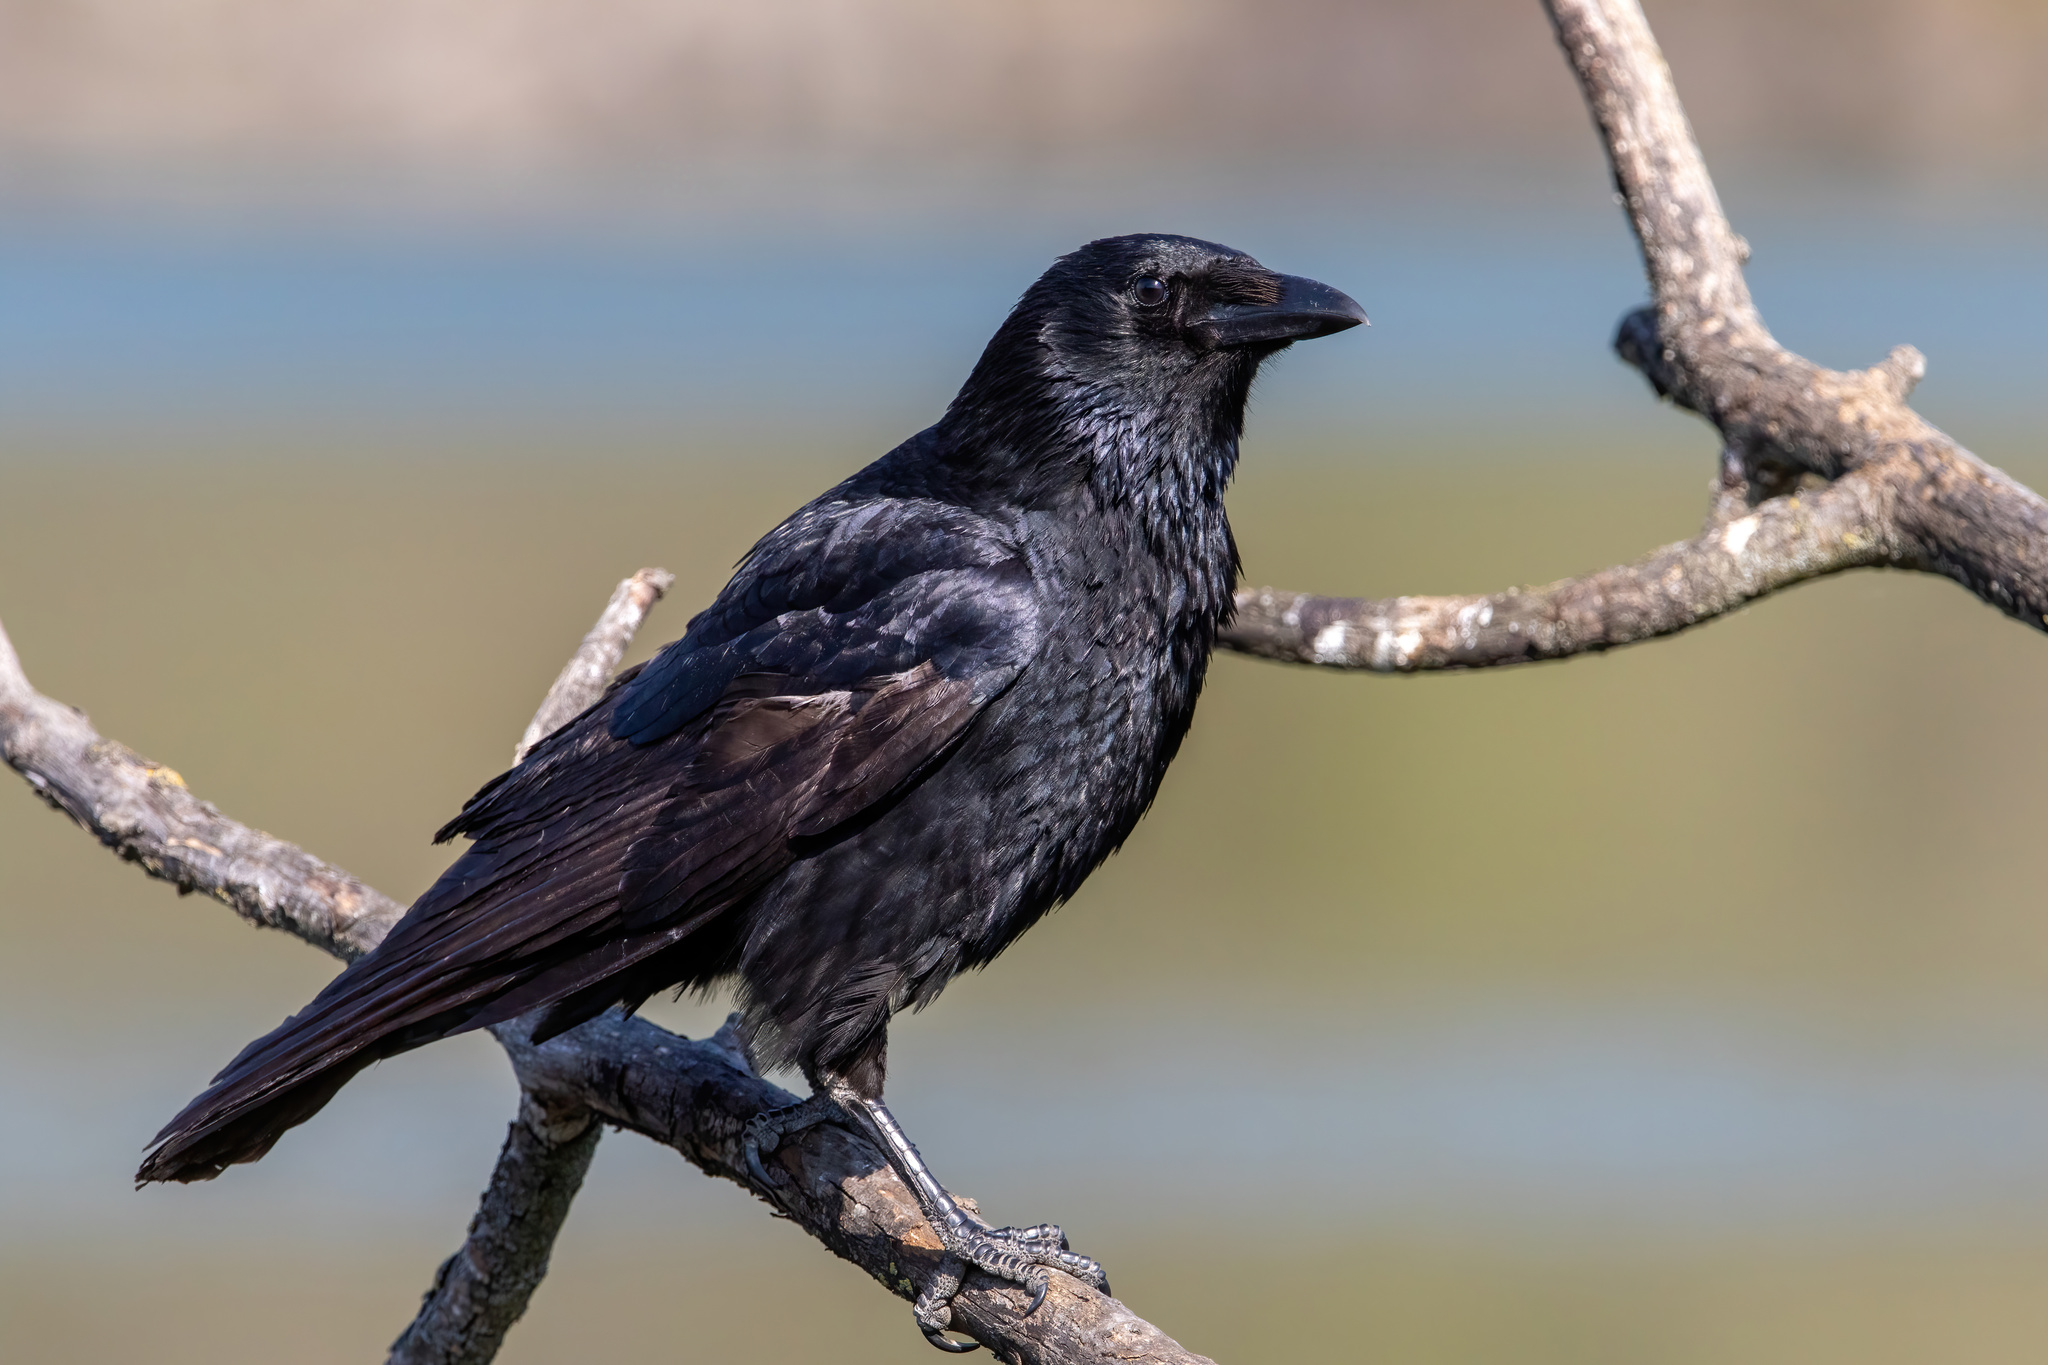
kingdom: Animalia
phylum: Chordata
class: Aves
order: Passeriformes
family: Corvidae
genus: Corvus
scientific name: Corvus corone
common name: Carrion crow
